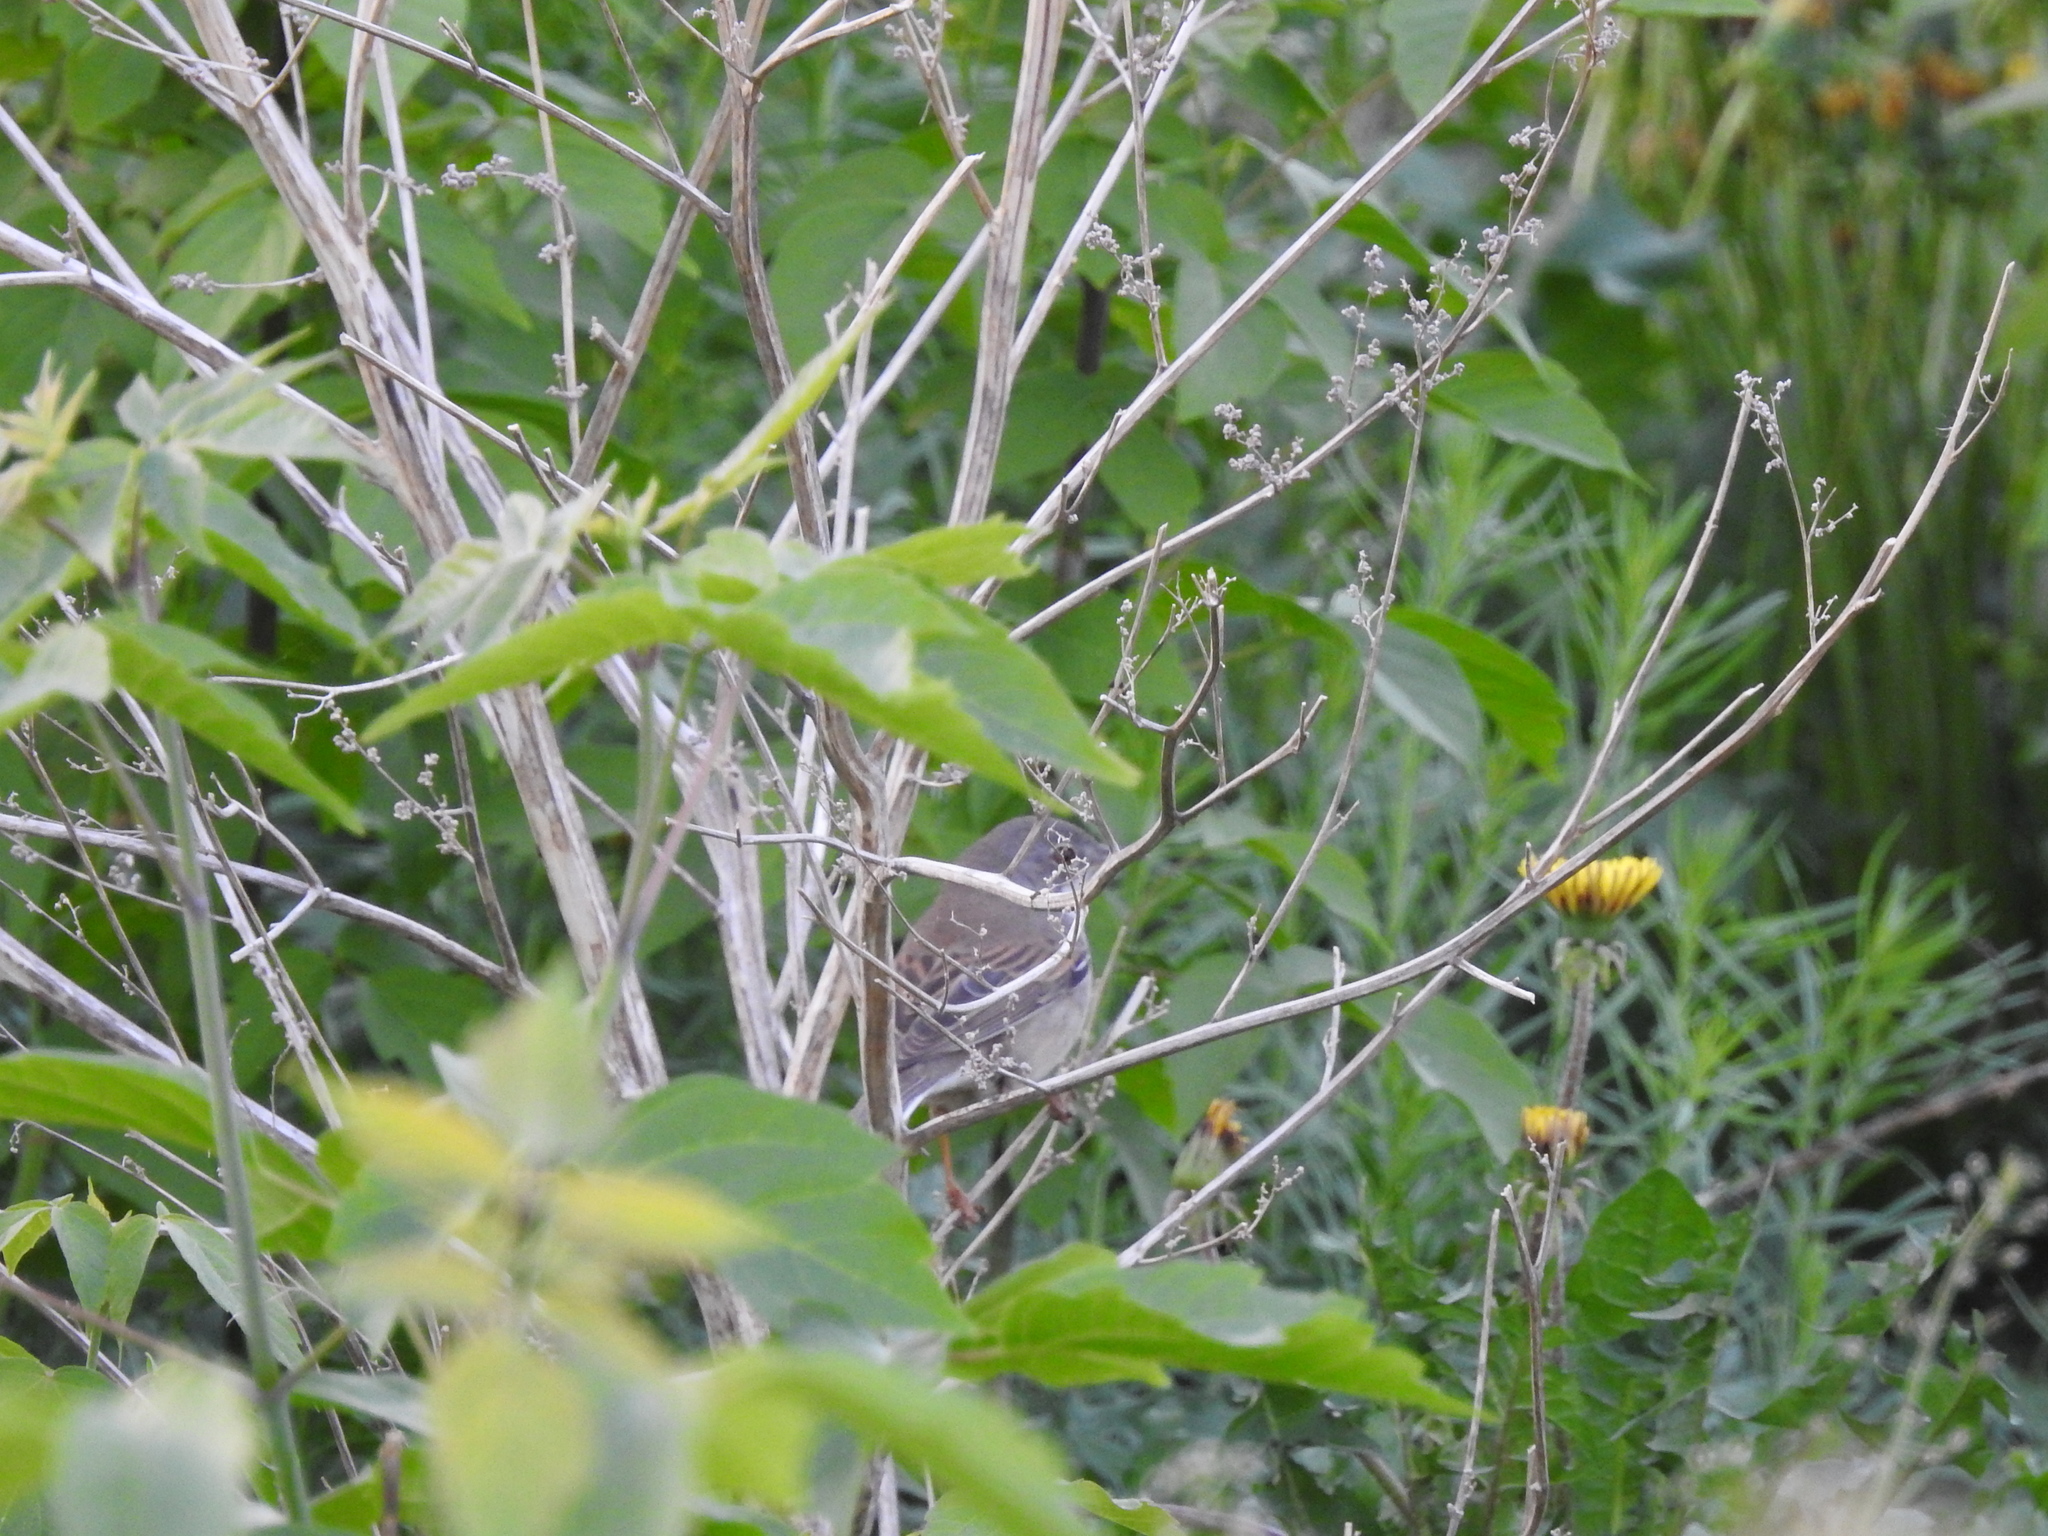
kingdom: Animalia
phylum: Chordata
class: Aves
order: Passeriformes
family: Sylviidae
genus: Sylvia
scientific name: Sylvia communis
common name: Common whitethroat
